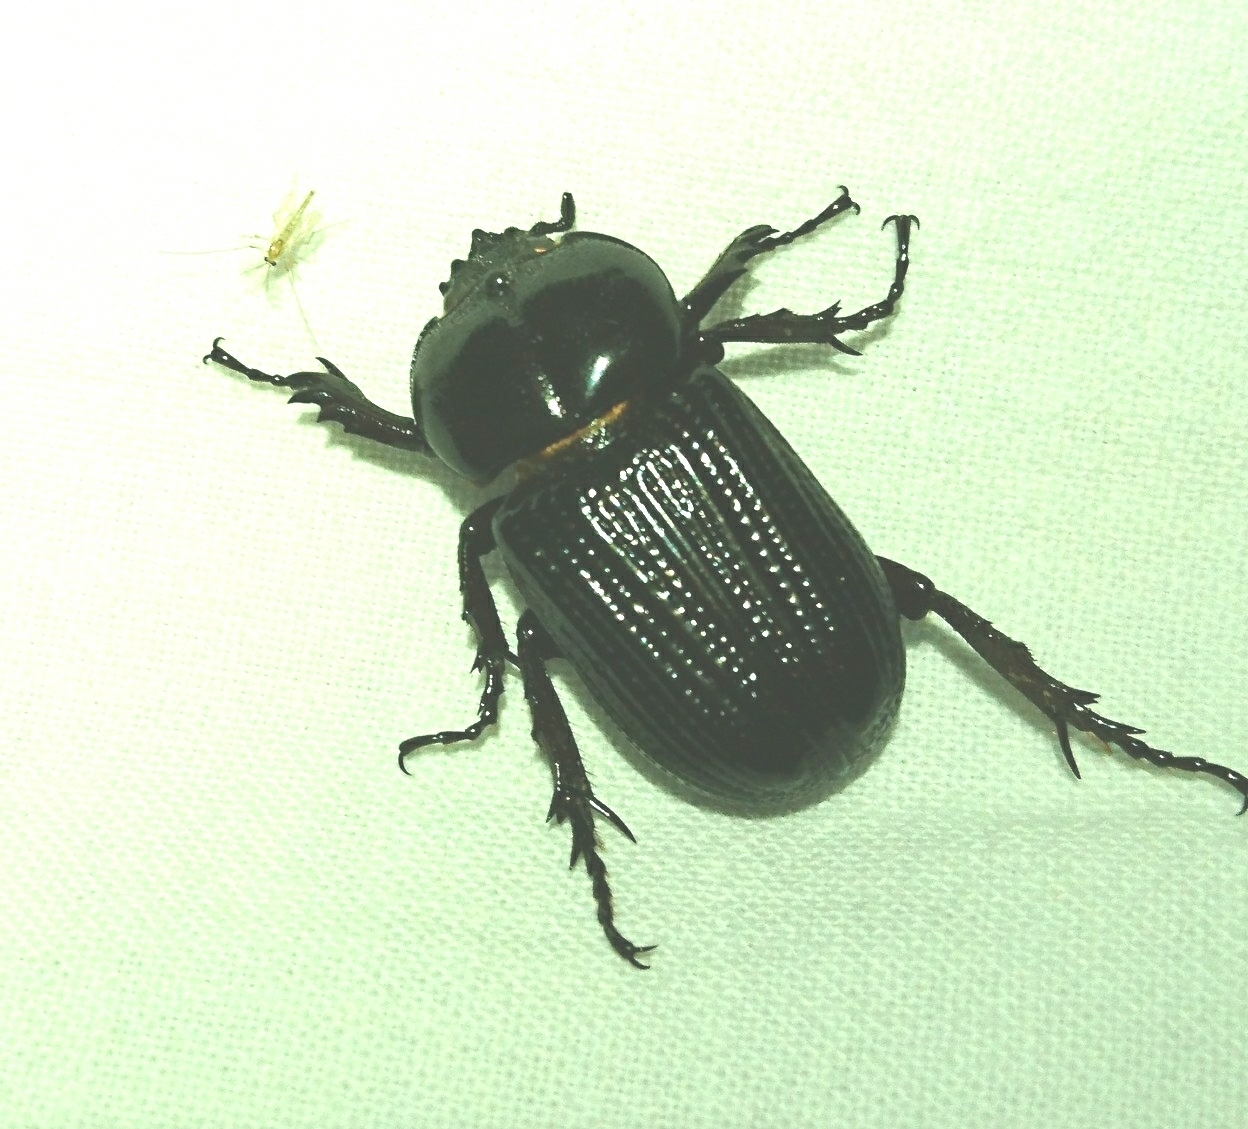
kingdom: Animalia
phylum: Arthropoda
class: Insecta
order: Coleoptera
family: Scarabaeidae
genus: Phileurus
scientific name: Phileurus truncatus
